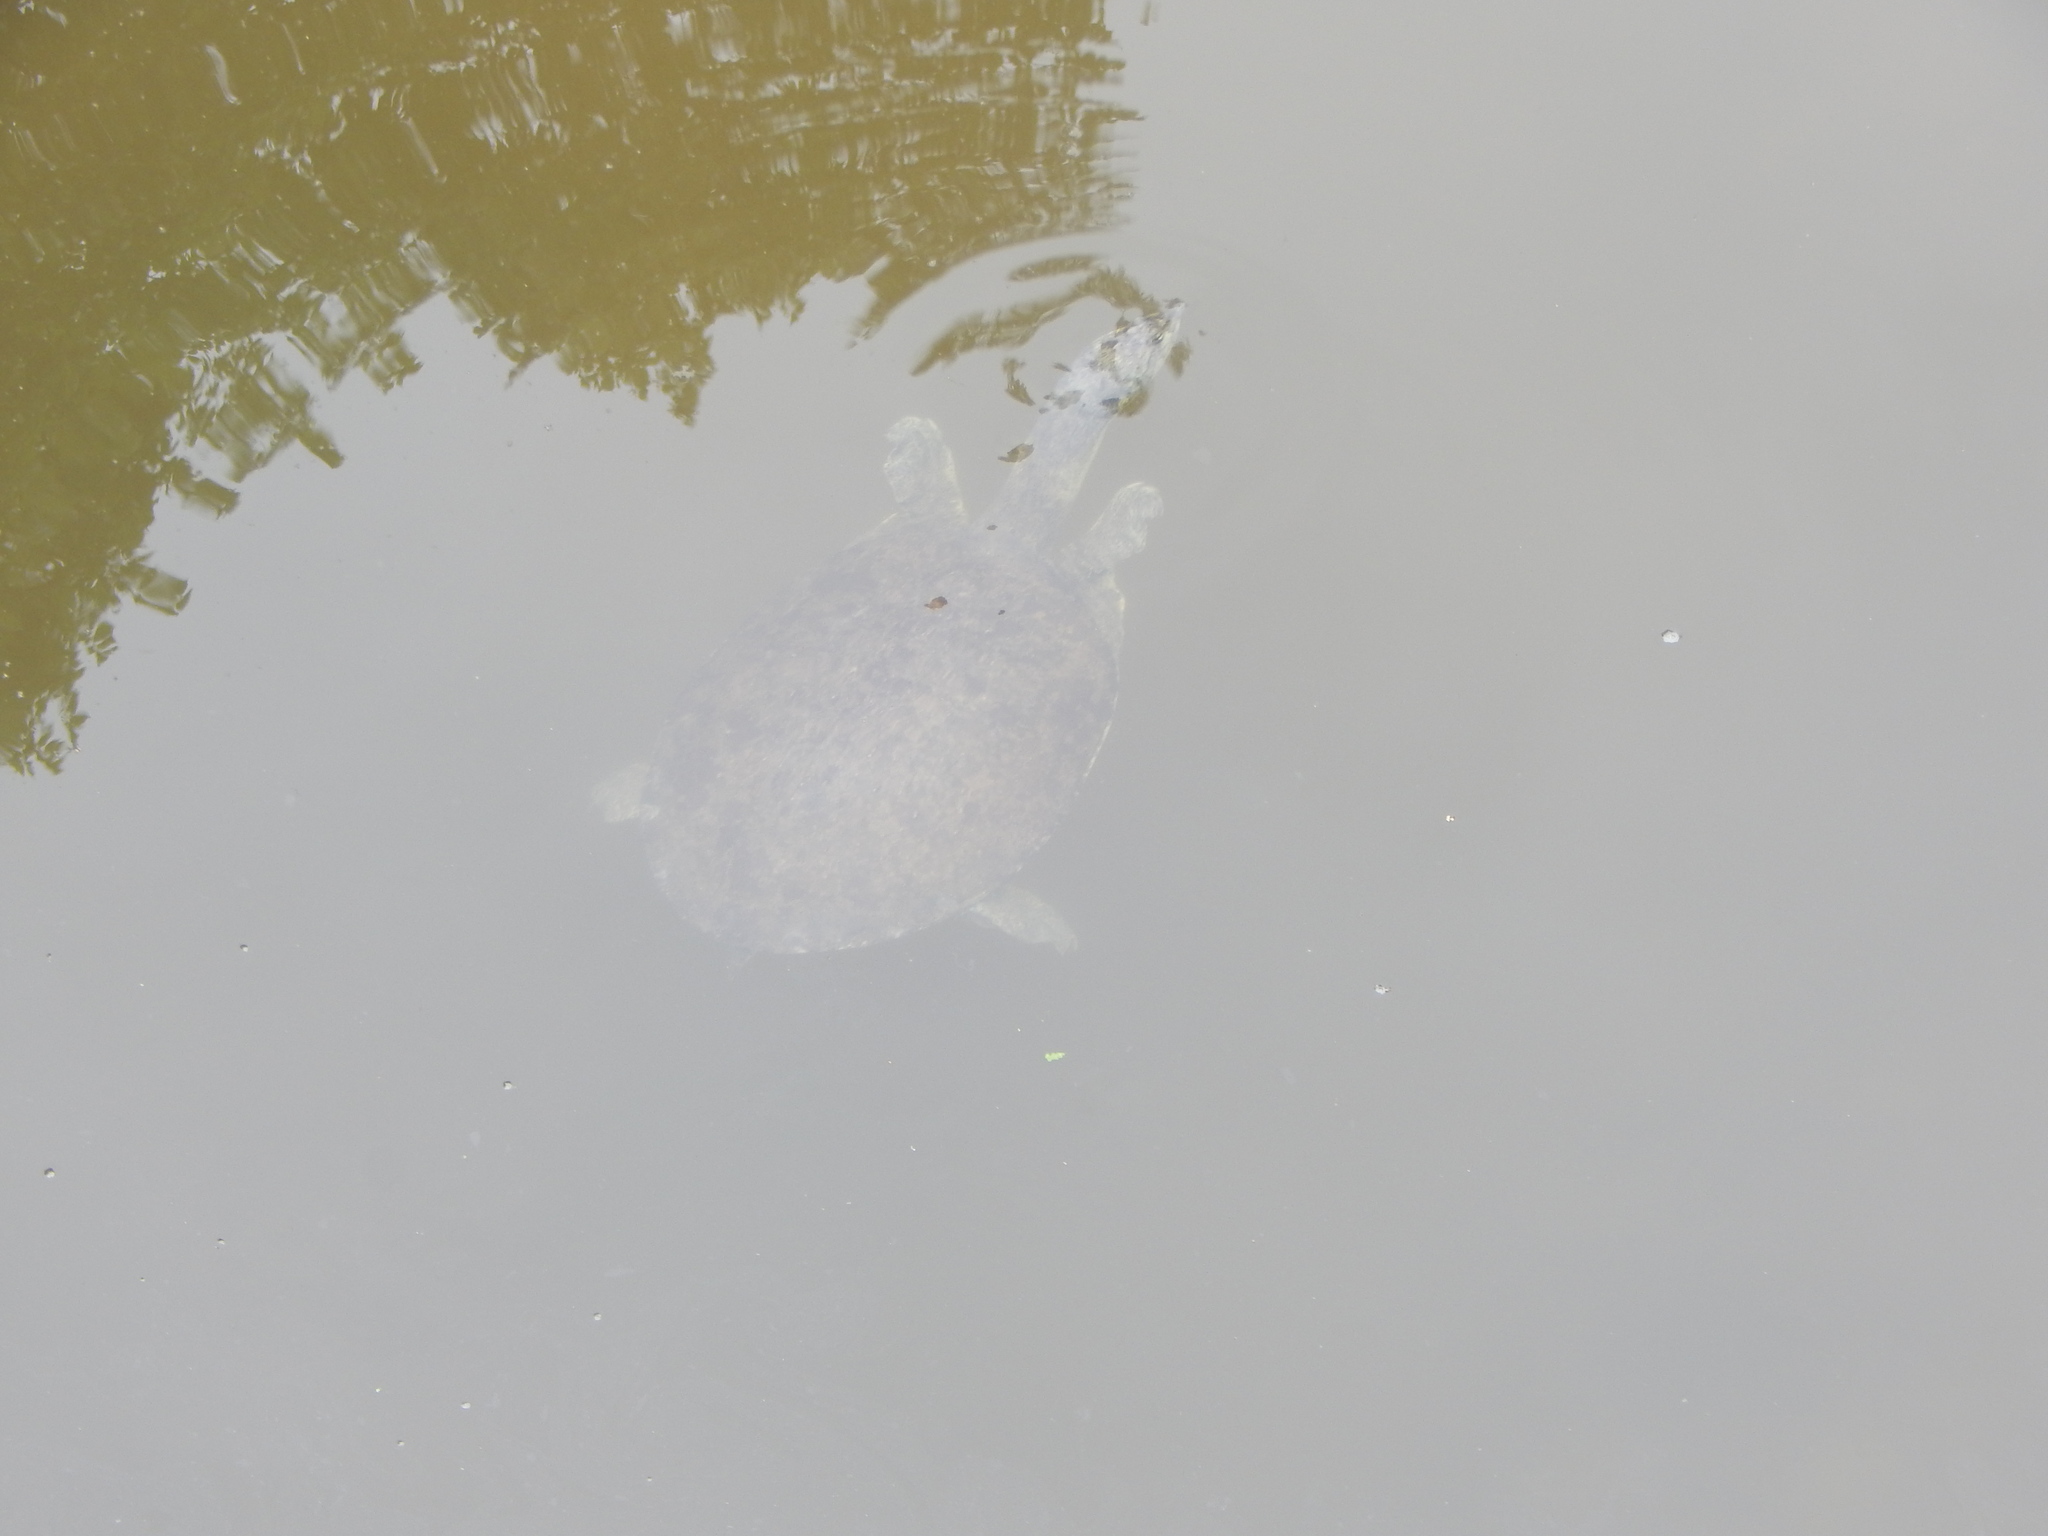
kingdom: Animalia
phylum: Chordata
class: Testudines
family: Trionychidae
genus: Apalone
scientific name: Apalone spinifera
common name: Spiny softshell turtle
